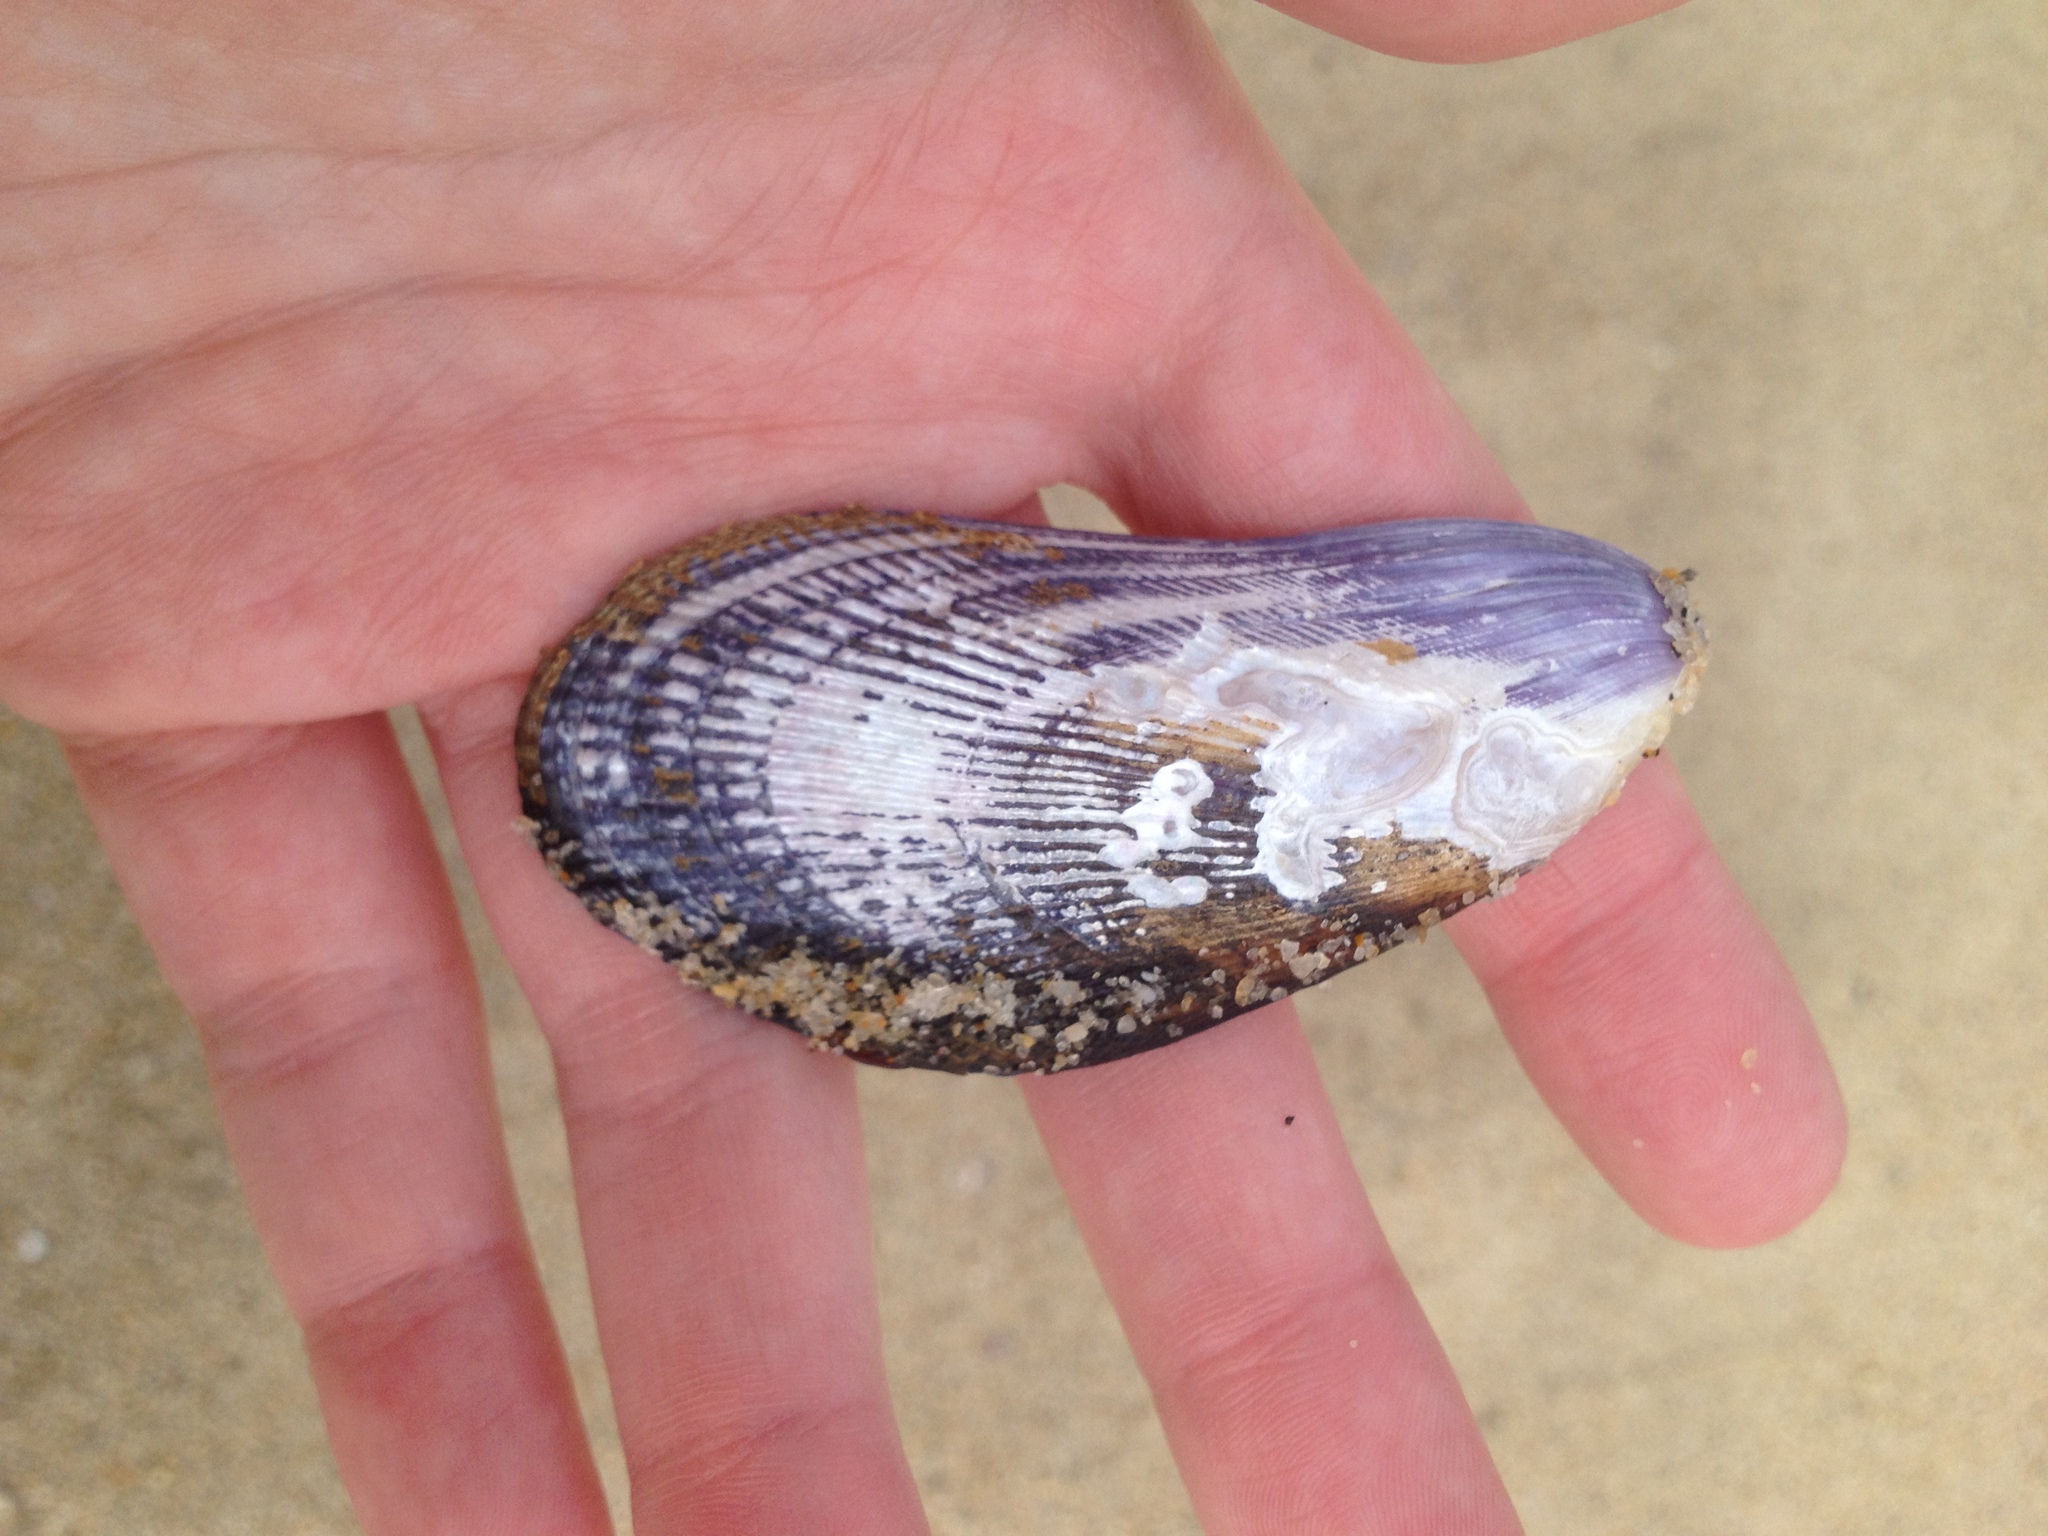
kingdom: Animalia
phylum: Mollusca
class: Bivalvia
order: Mytilida
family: Mytilidae
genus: Geukensia
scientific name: Geukensia demissa
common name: Ribbed mussel
